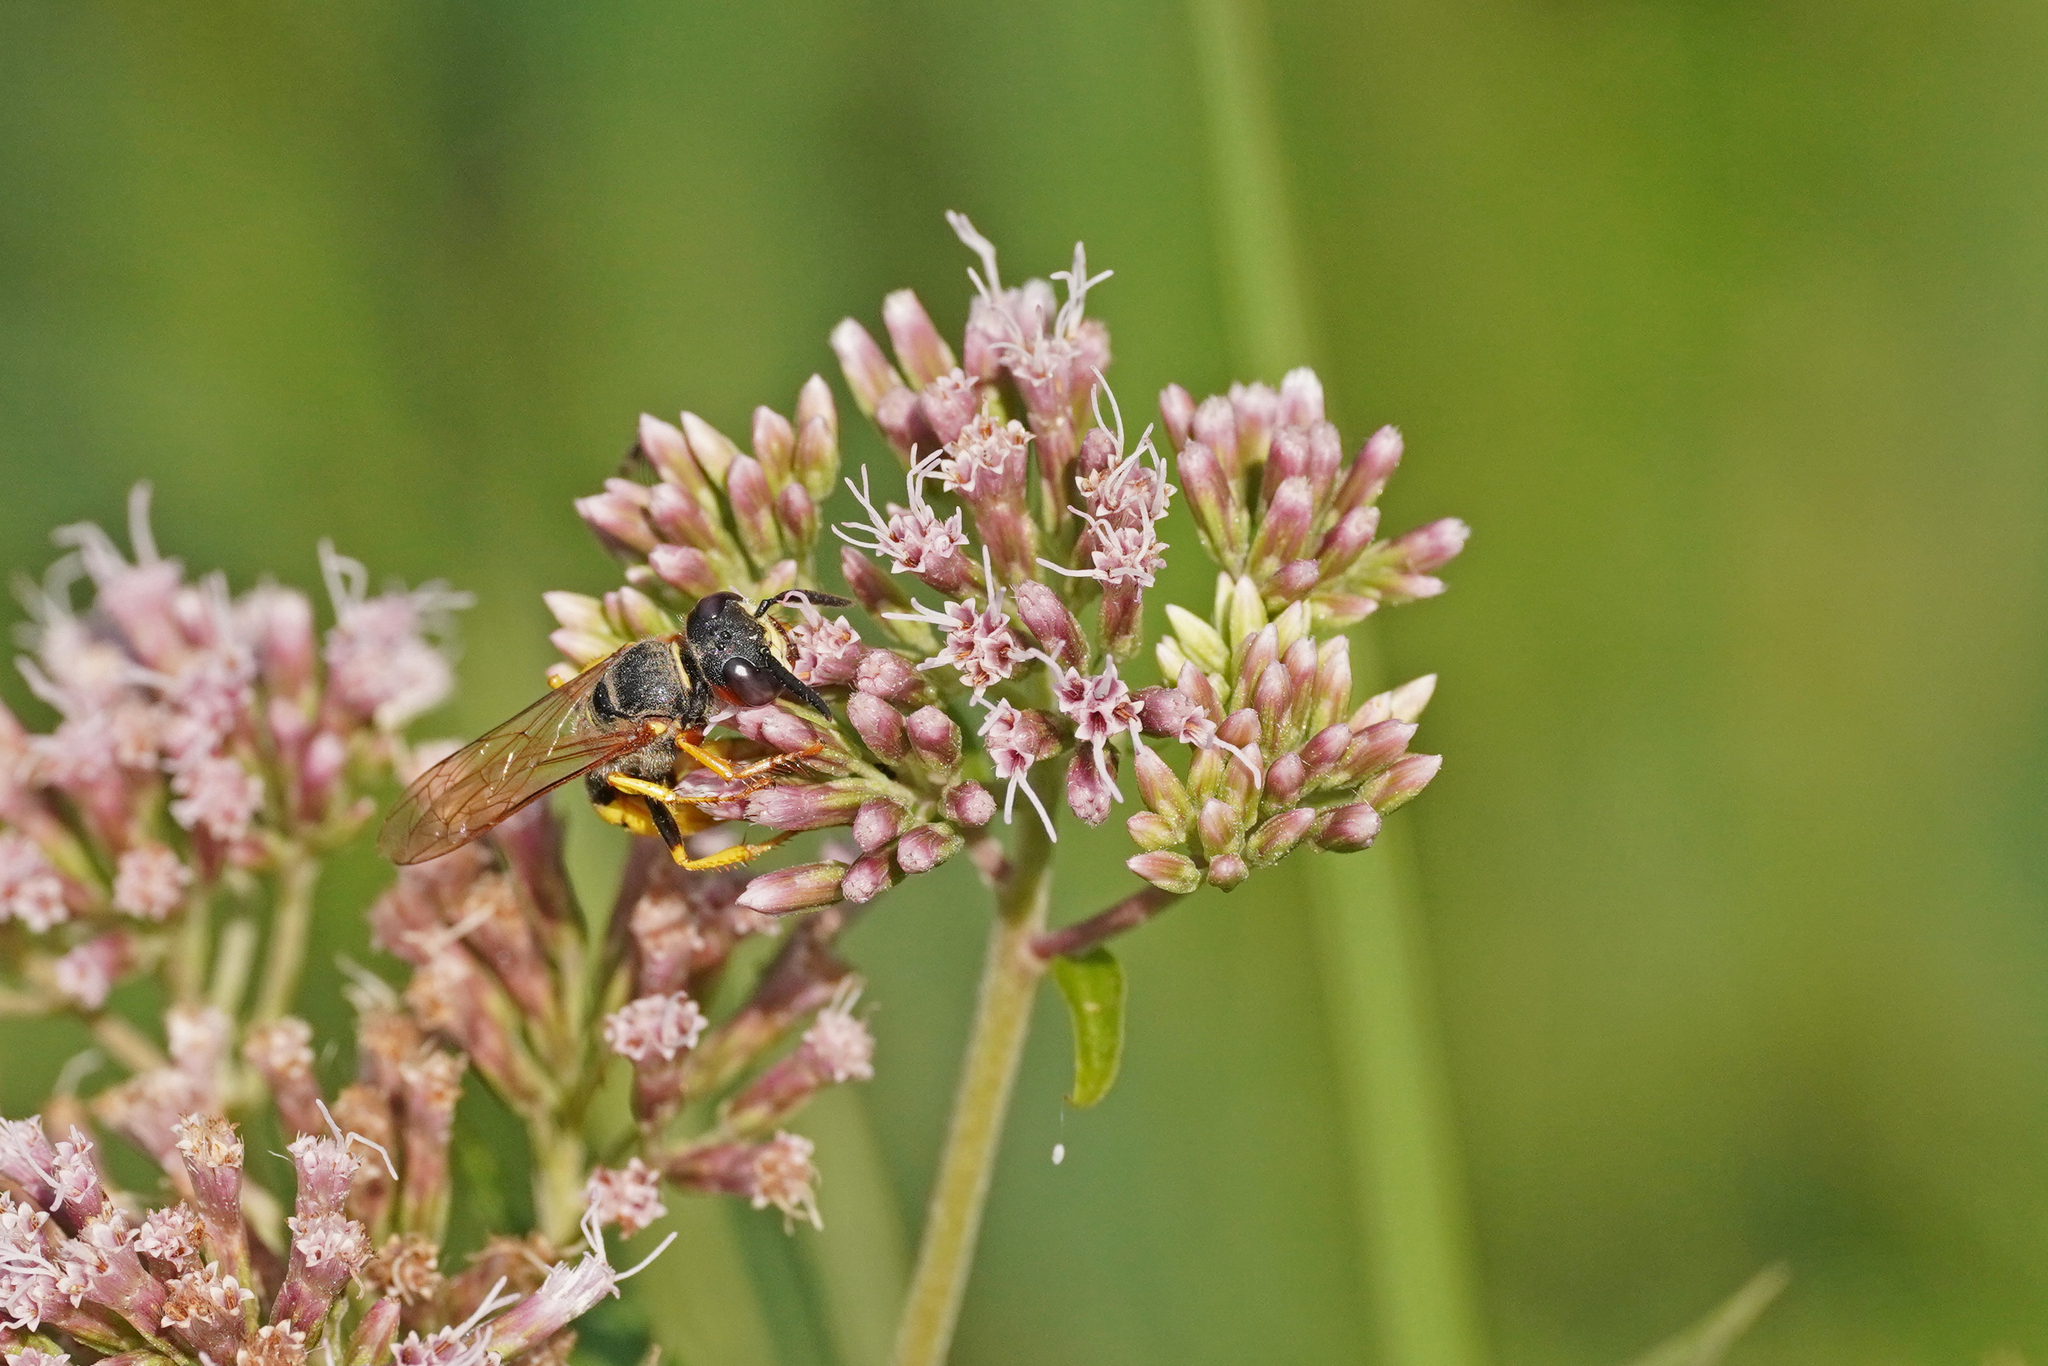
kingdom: Animalia
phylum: Arthropoda
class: Insecta
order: Hymenoptera
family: Crabronidae
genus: Philanthus
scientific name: Philanthus triangulum
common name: Bee wolf
